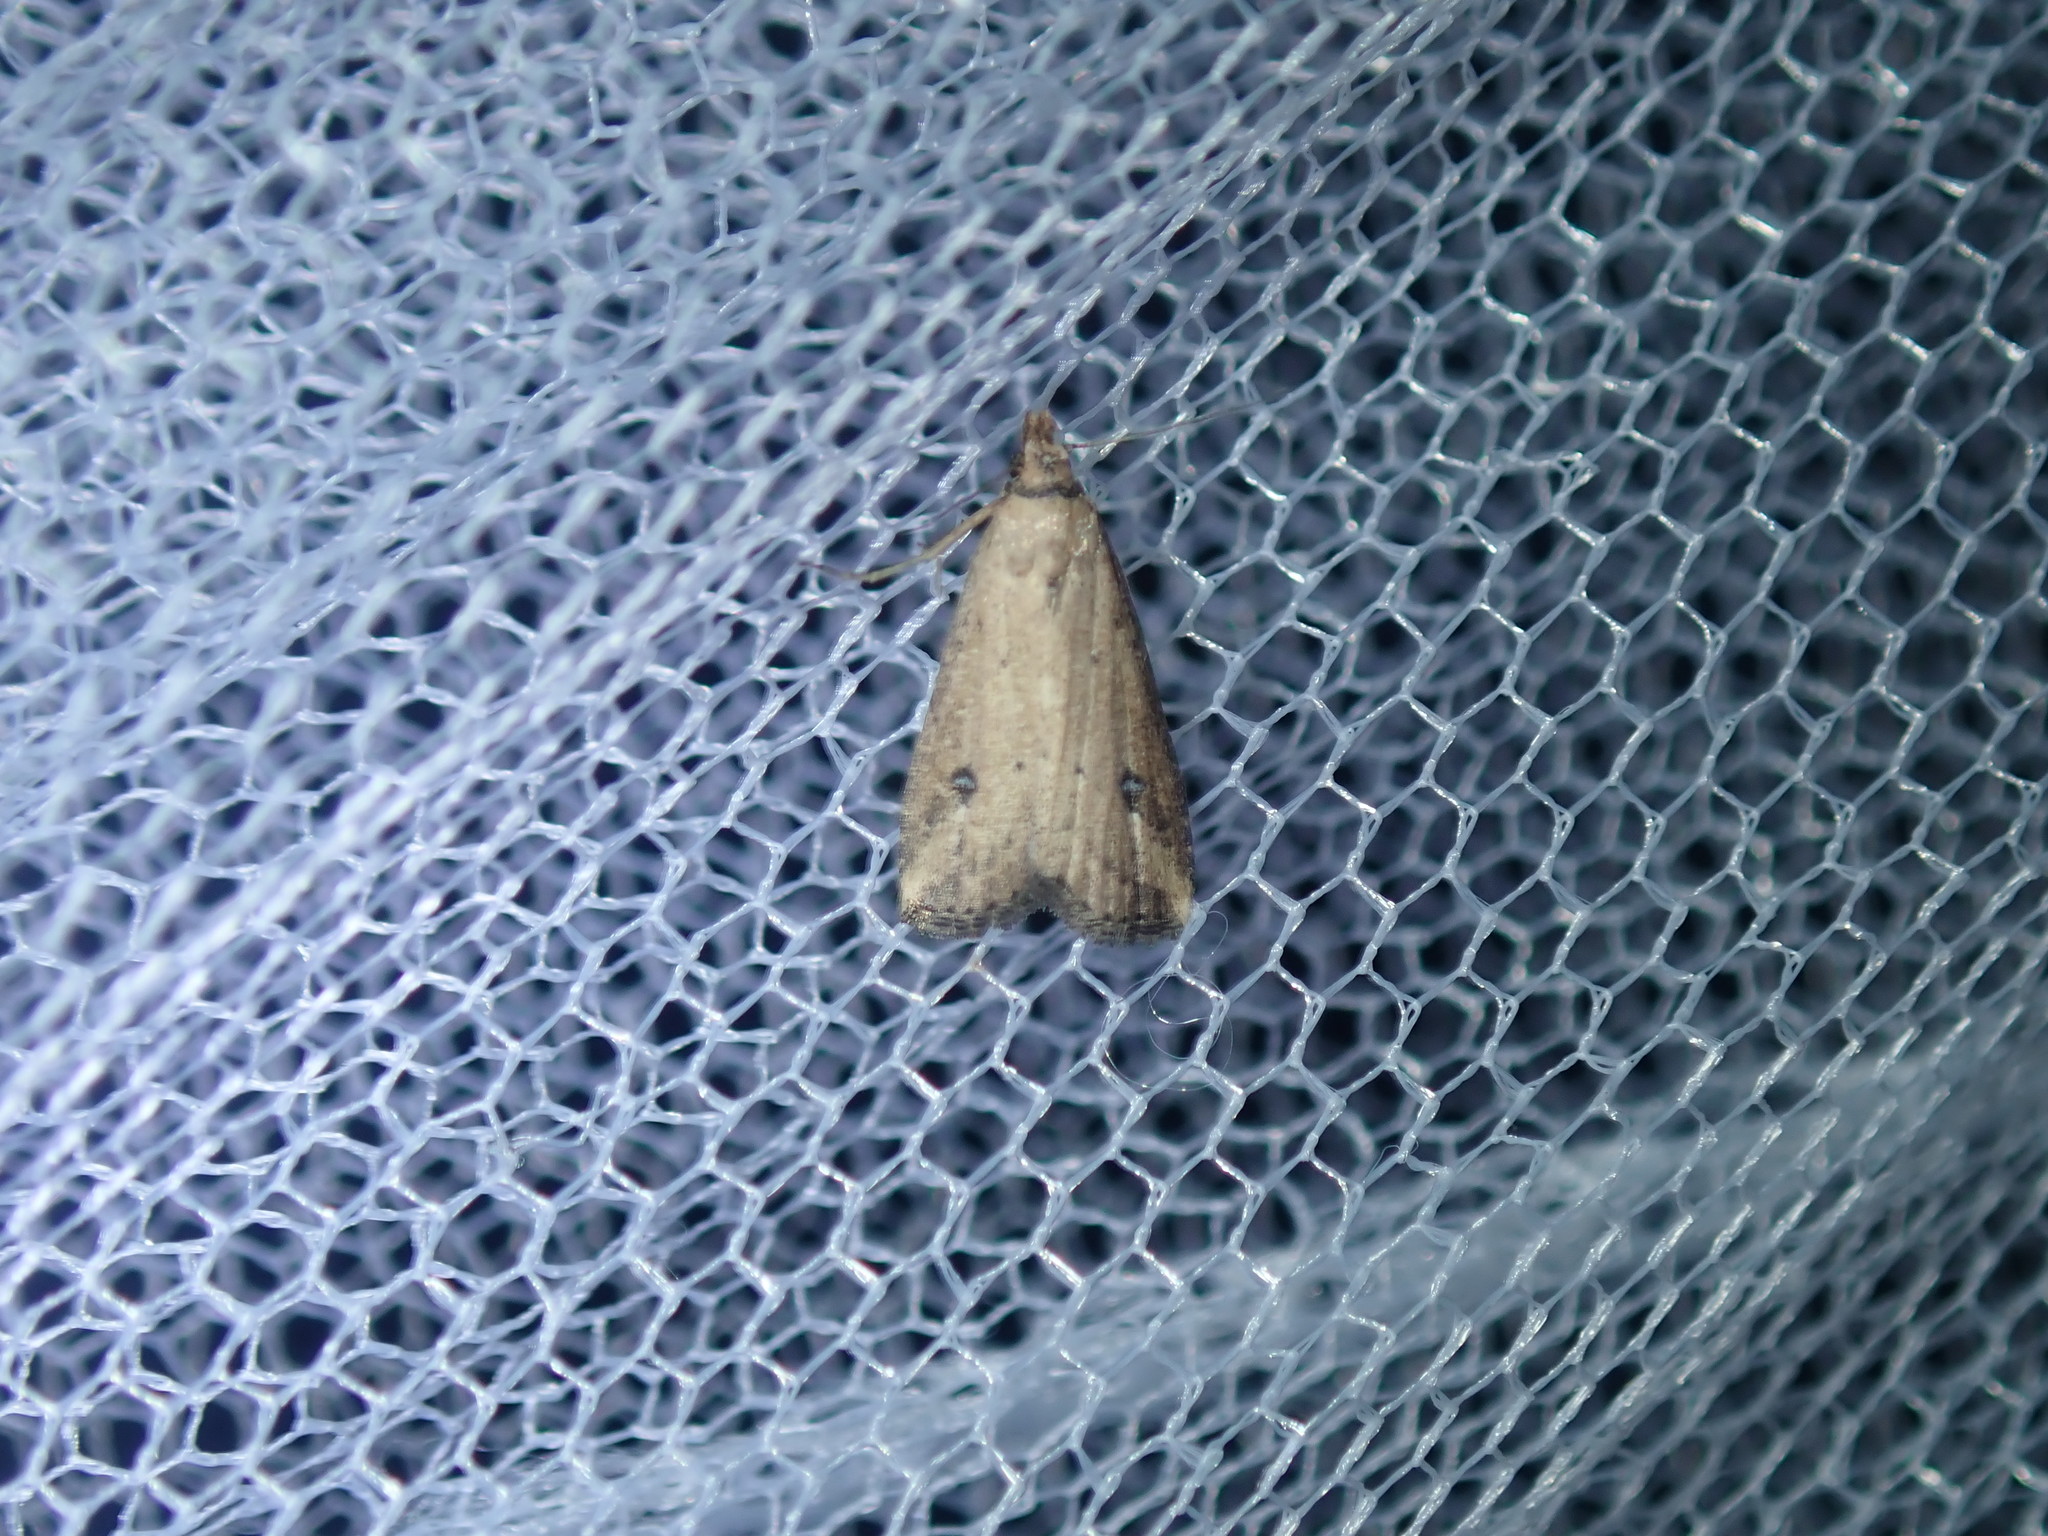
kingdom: Animalia
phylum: Arthropoda
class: Insecta
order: Lepidoptera
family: Erebidae
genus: Luceria
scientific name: Luceria oculalis
